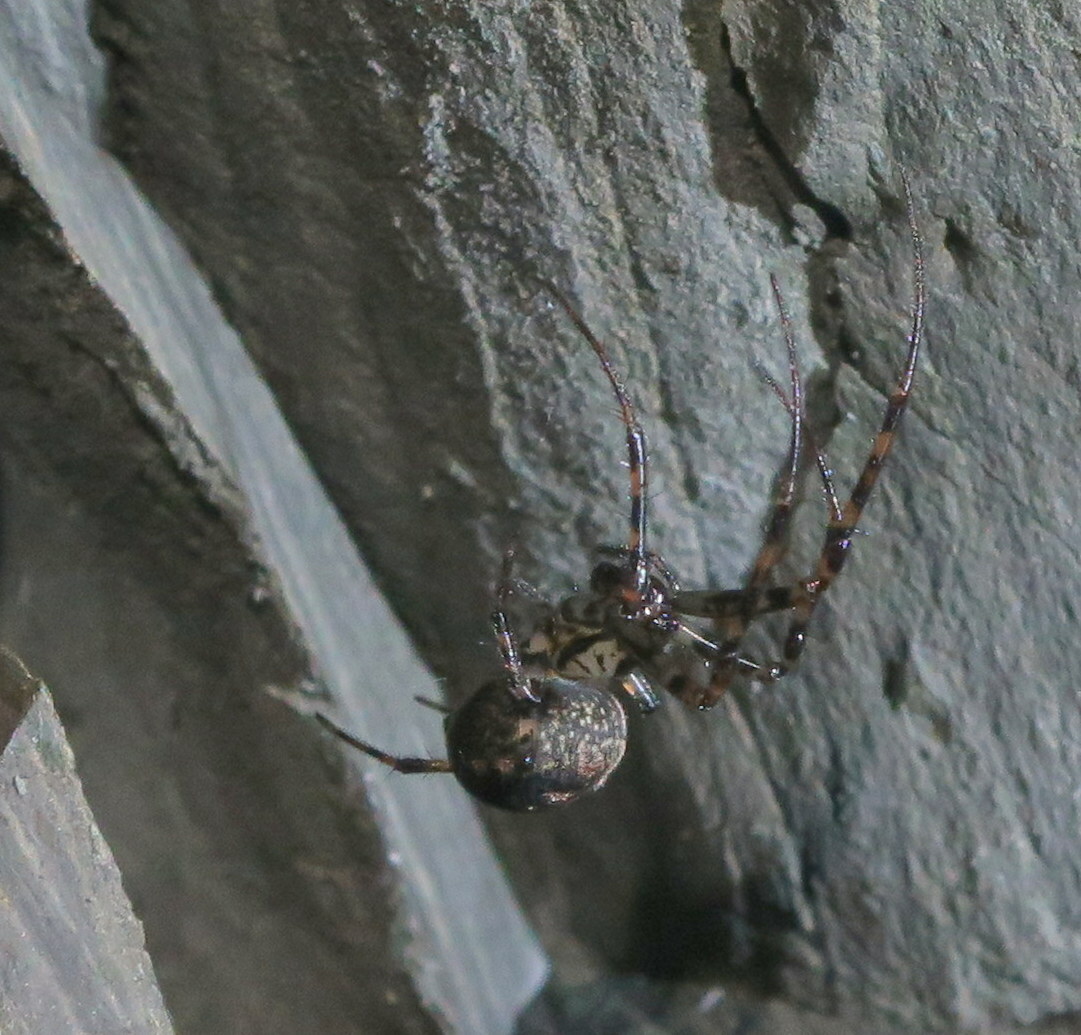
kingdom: Animalia
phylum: Arthropoda
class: Arachnida
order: Araneae
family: Tetragnathidae
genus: Metellina
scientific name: Metellina merianae
